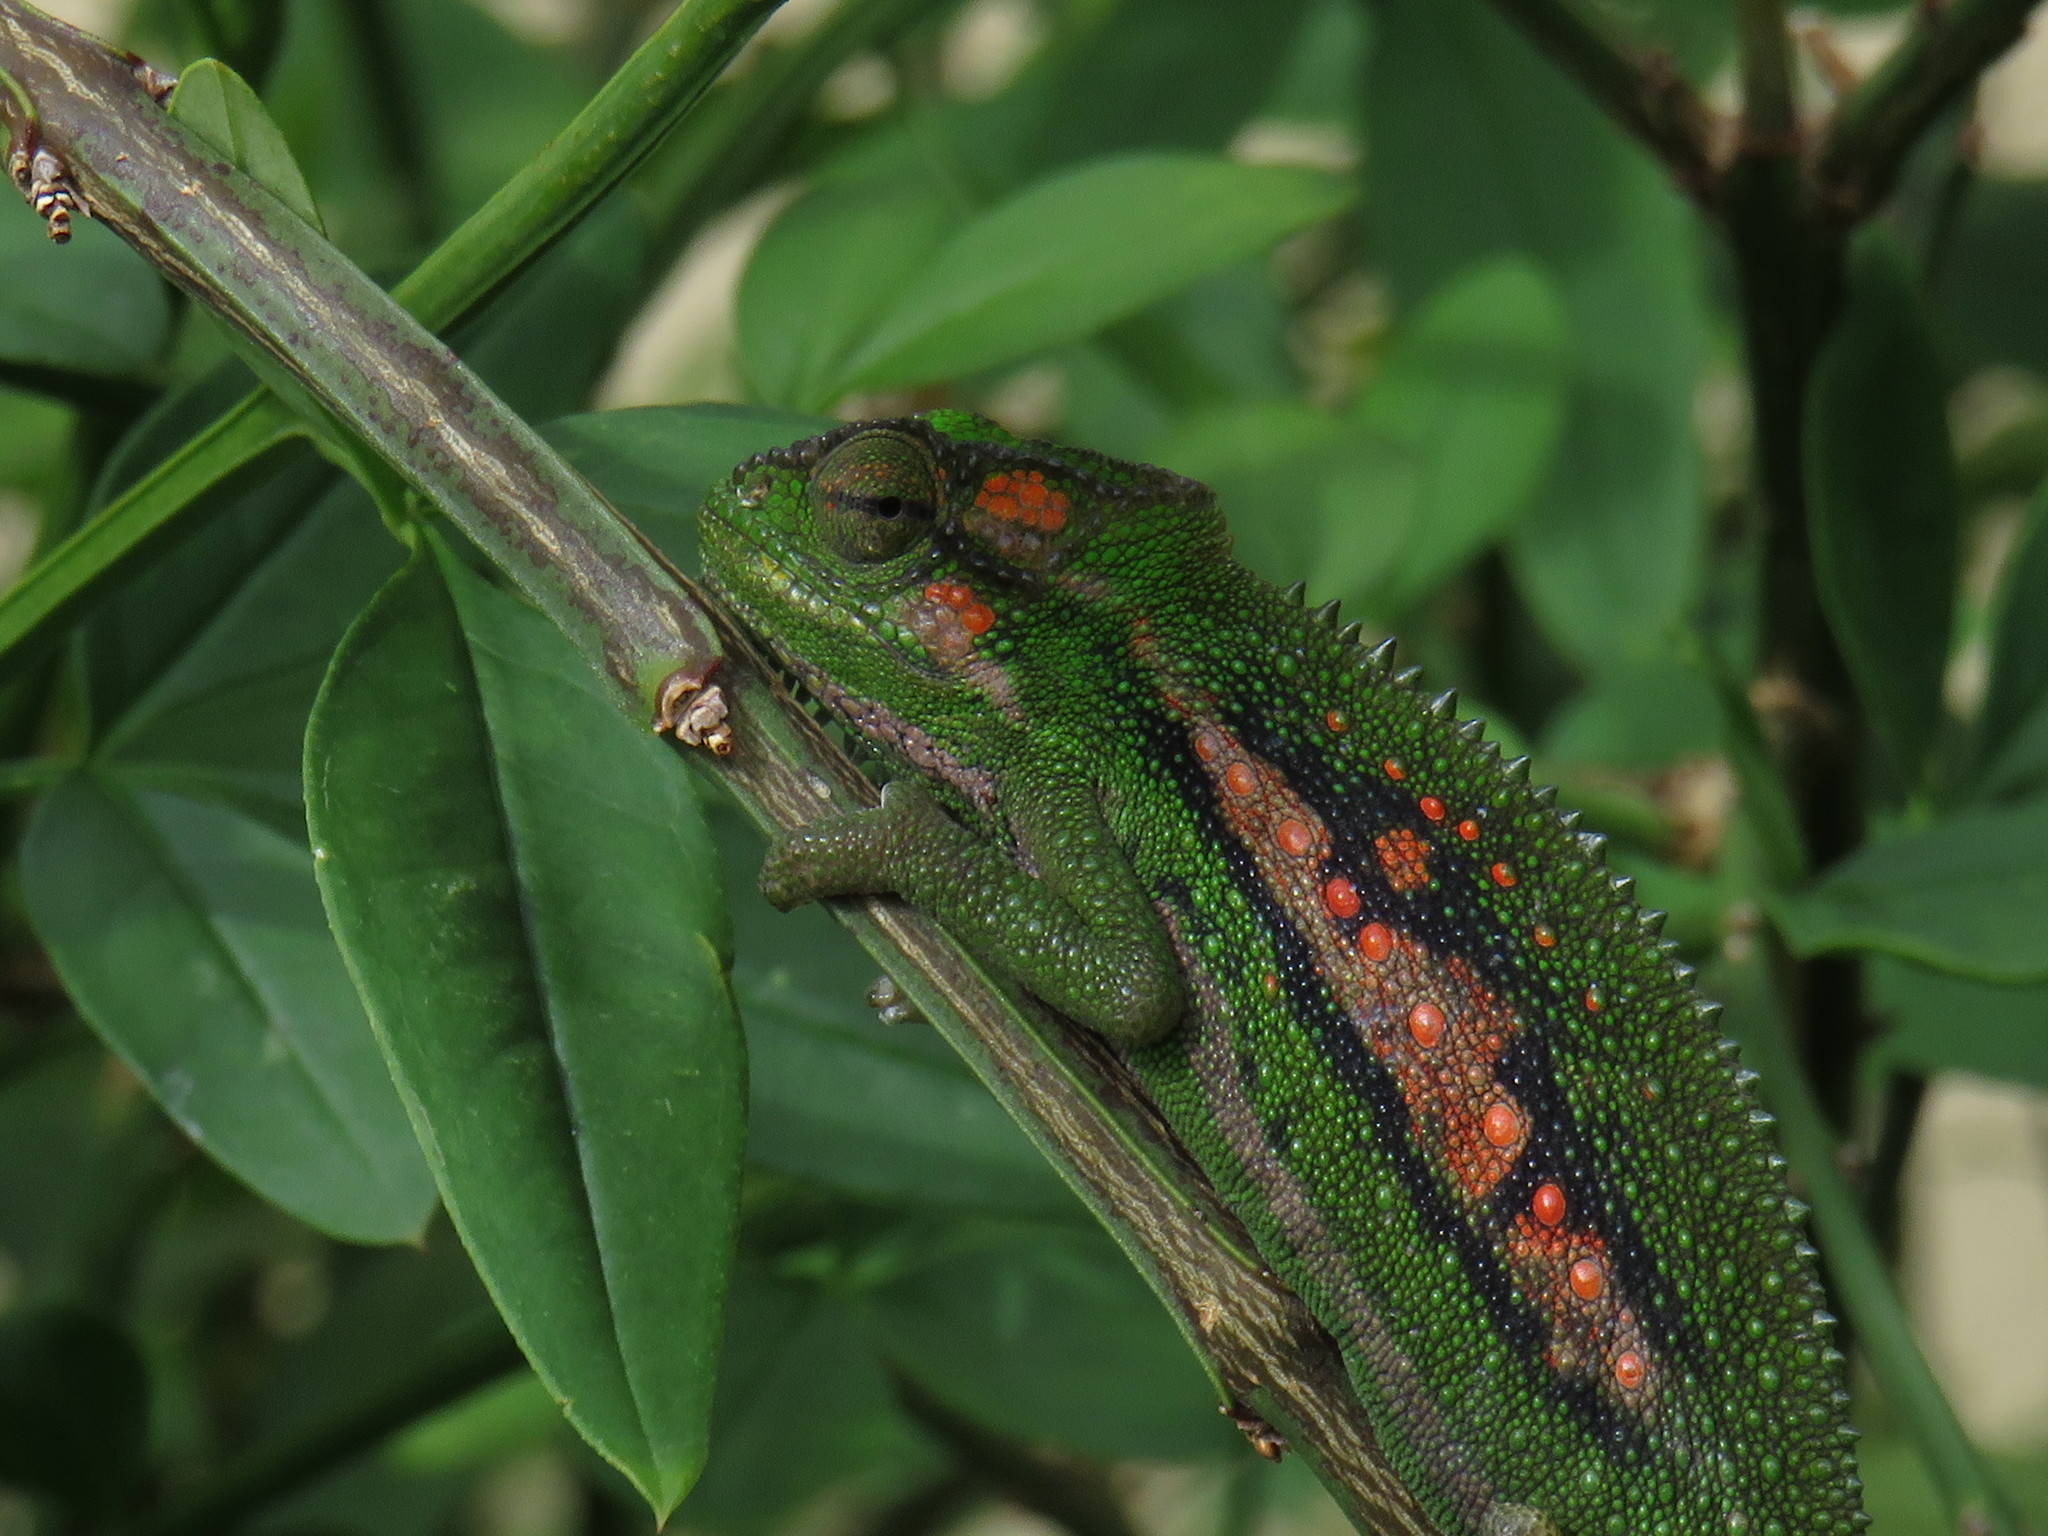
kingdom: Animalia
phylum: Chordata
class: Squamata
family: Chamaeleonidae
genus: Bradypodion
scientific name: Bradypodion pumilum
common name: Cape dwarf chameleon
